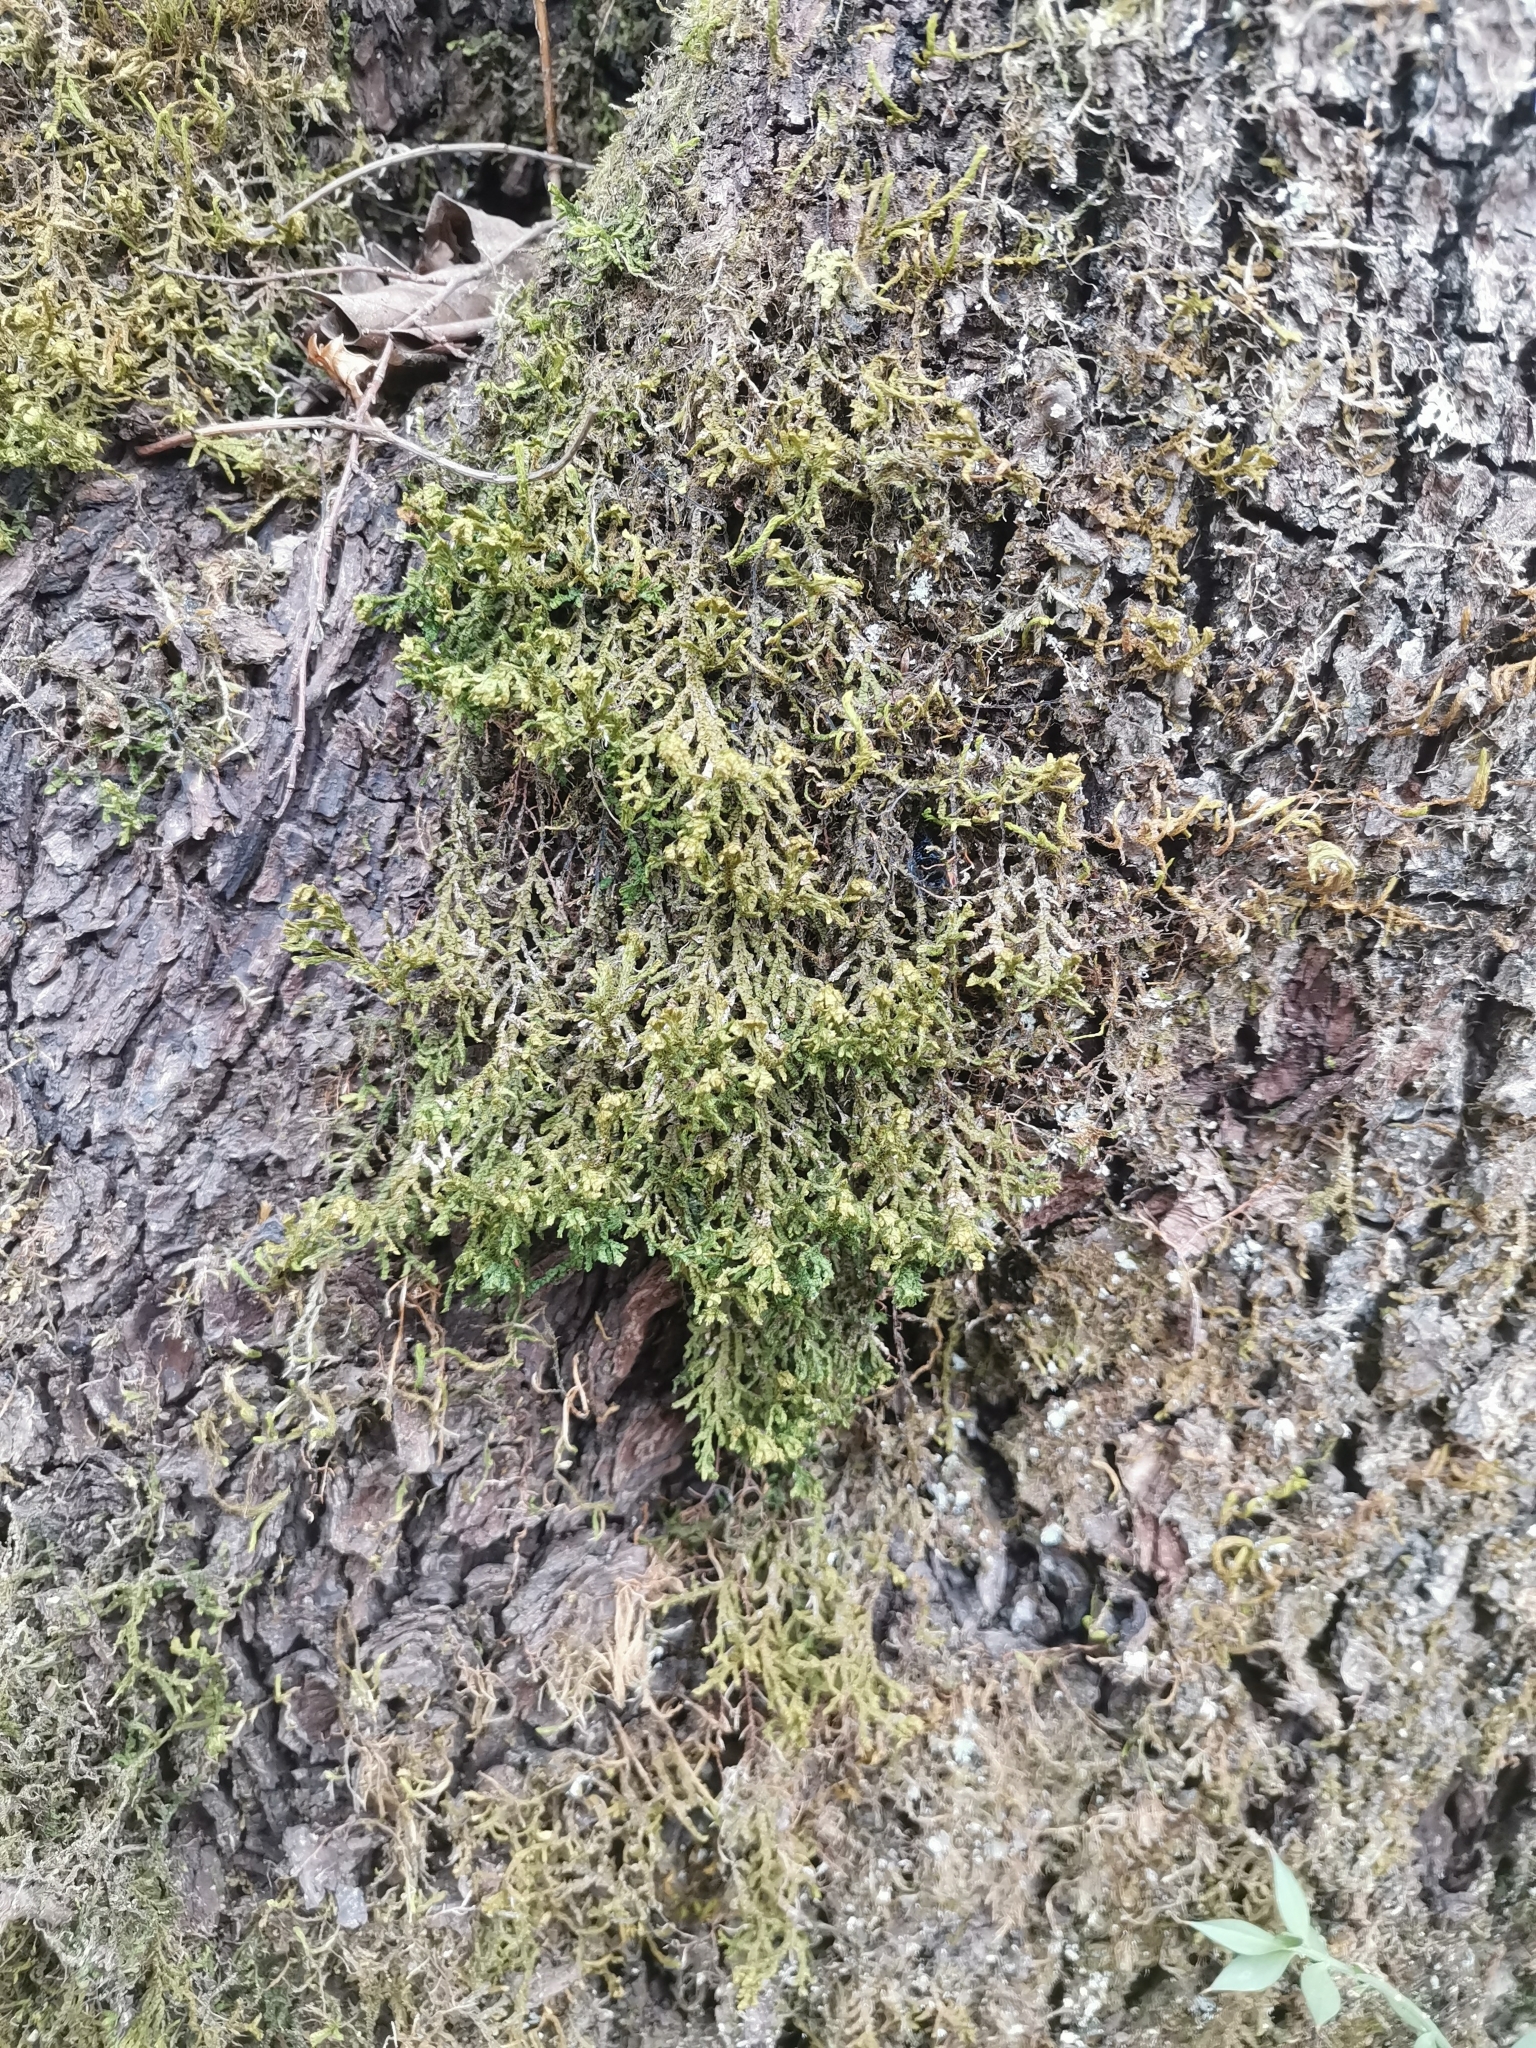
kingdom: Plantae
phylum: Marchantiophyta
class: Jungermanniopsida
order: Porellales
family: Porellaceae
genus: Porella
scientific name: Porella platyphylla
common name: Wall scalewort
